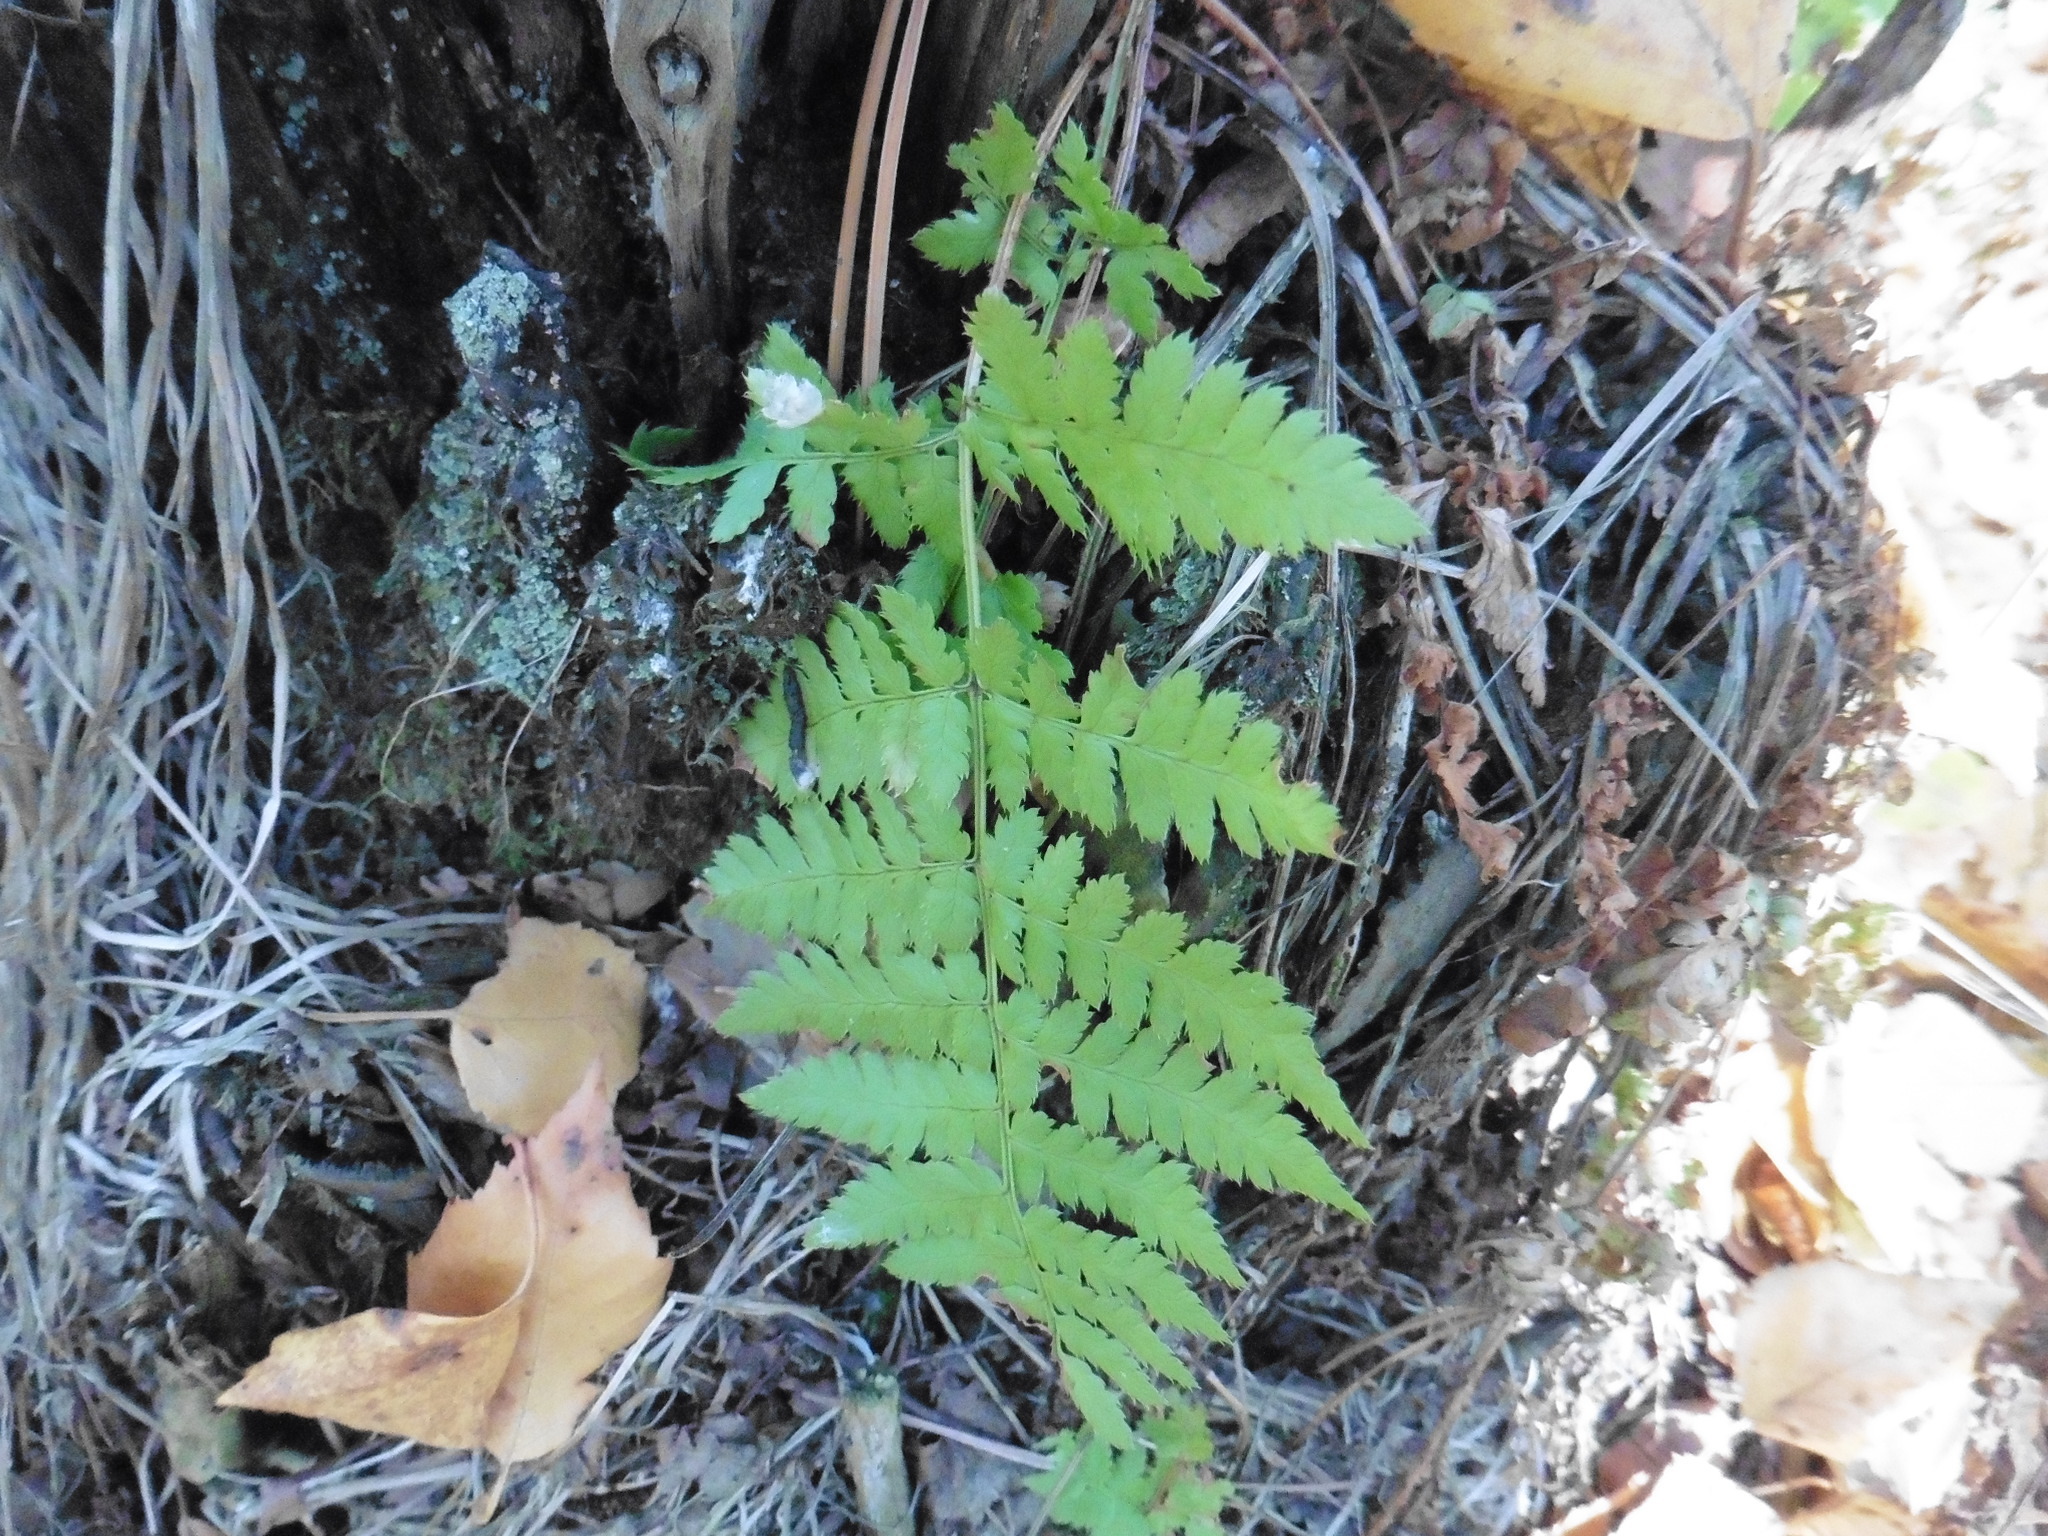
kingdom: Plantae
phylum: Tracheophyta
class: Polypodiopsida
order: Polypodiales
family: Dryopteridaceae
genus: Dryopteris
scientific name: Dryopteris carthusiana
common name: Narrow buckler-fern
